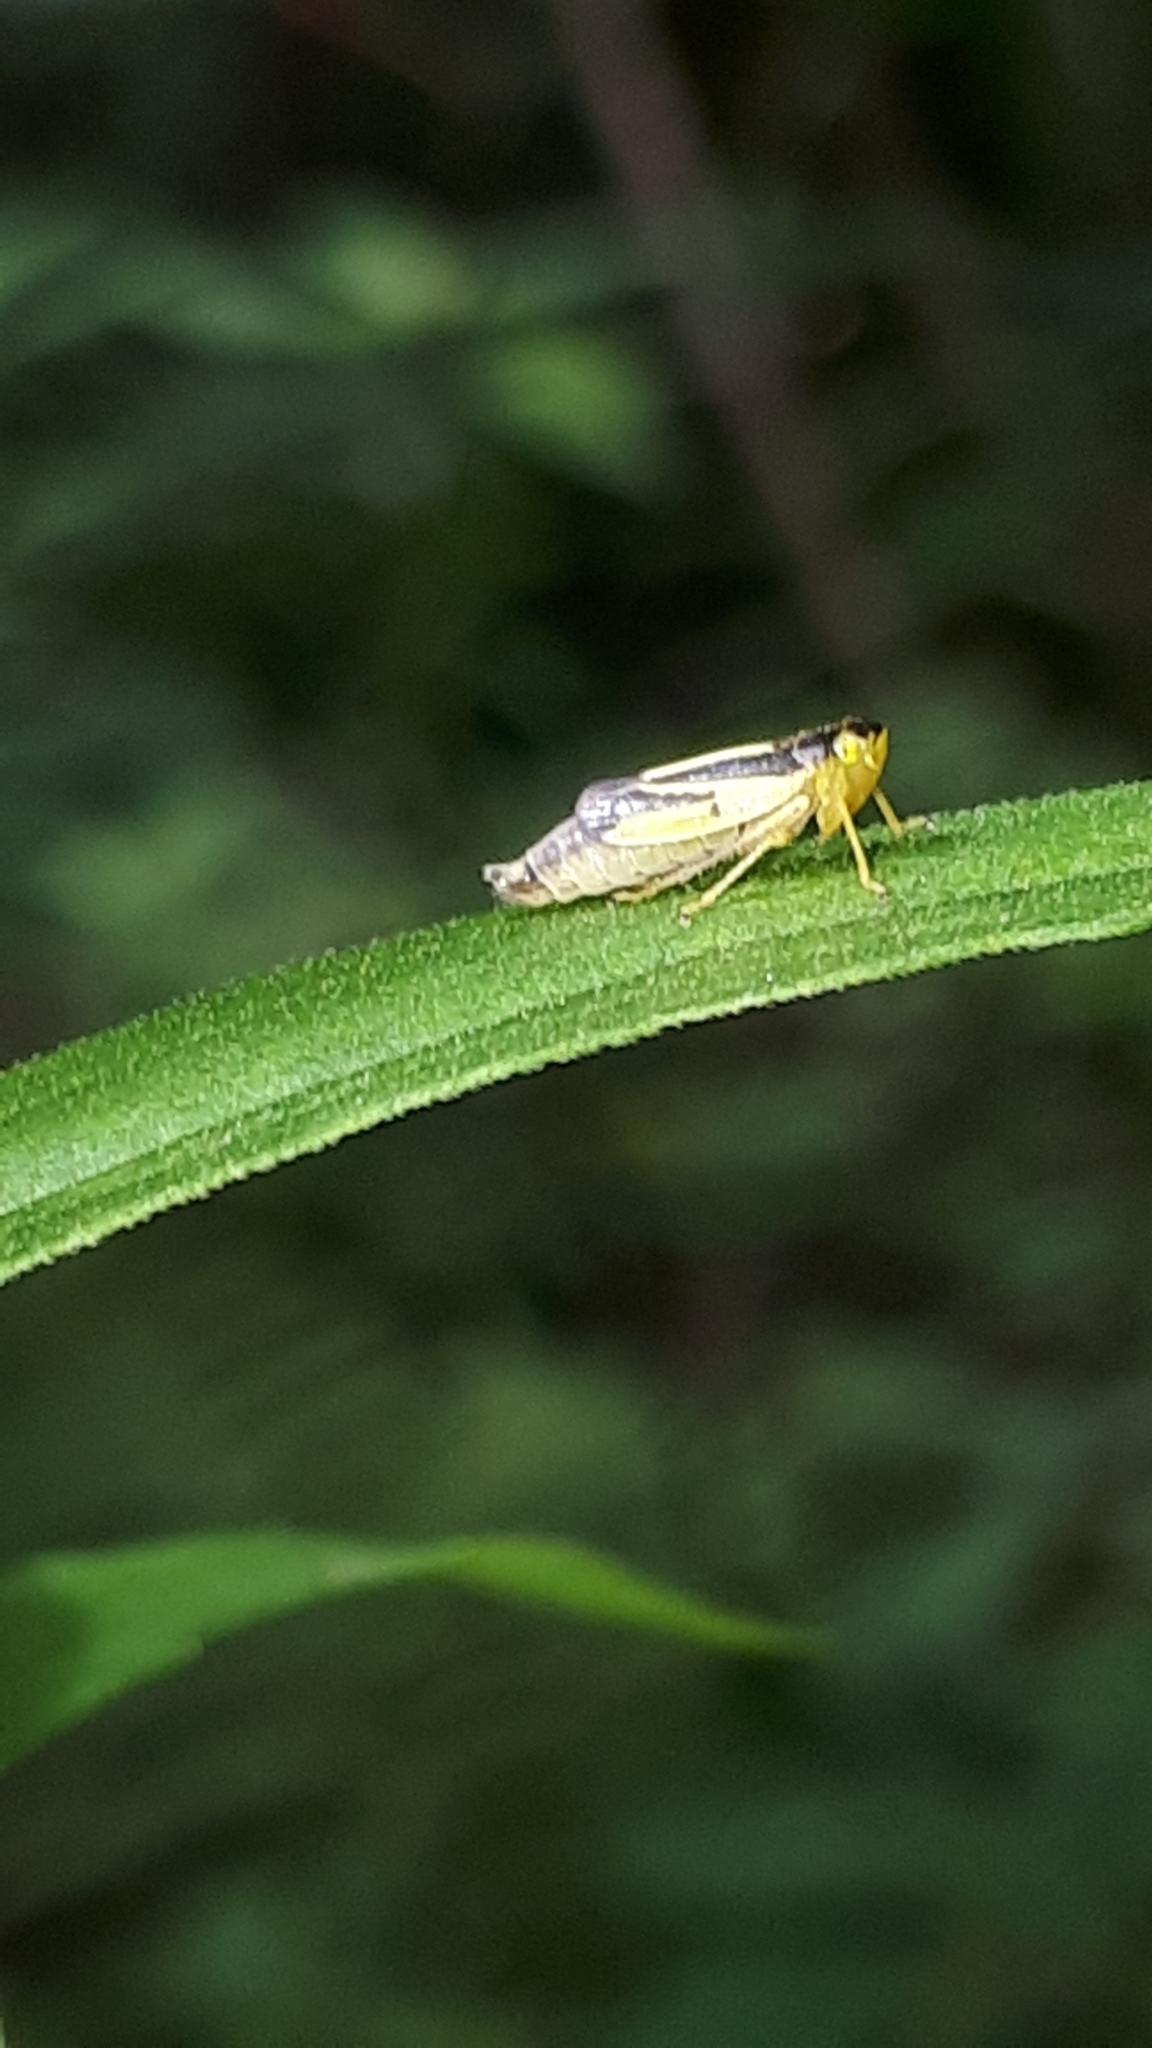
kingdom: Animalia
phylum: Arthropoda
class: Insecta
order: Hemiptera
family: Cicadellidae
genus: Evacanthus
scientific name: Evacanthus interruptus
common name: Leafhopper
